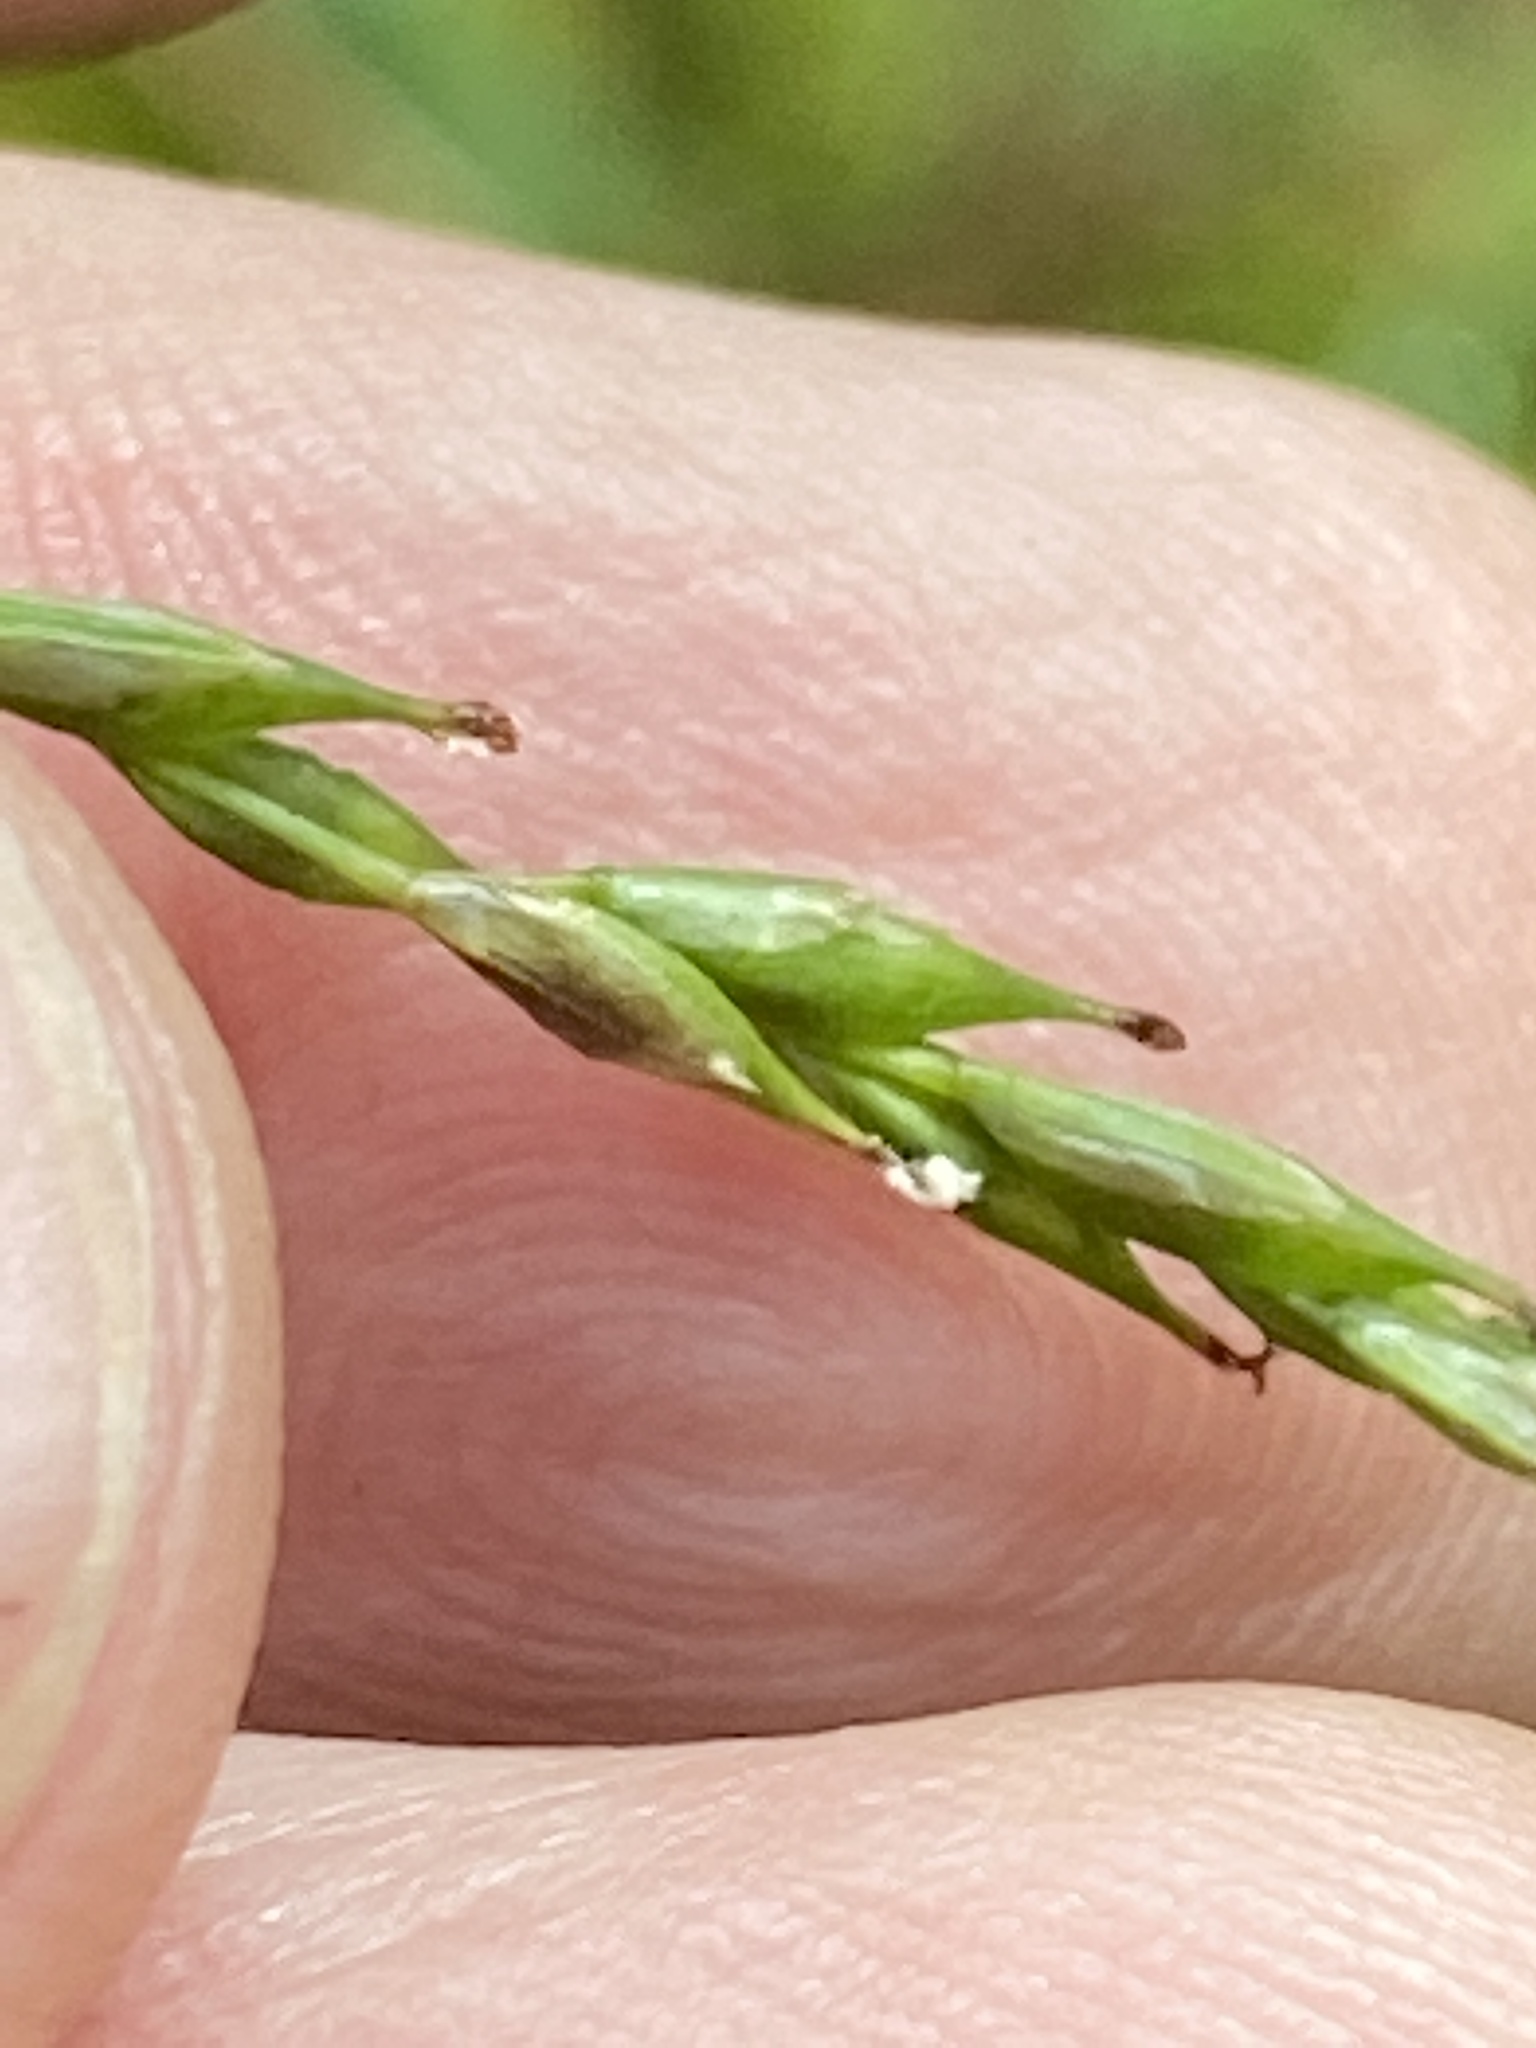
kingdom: Plantae
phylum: Tracheophyta
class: Liliopsida
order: Poales
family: Cyperaceae
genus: Carex
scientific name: Carex debilis
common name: White-edge sedge
